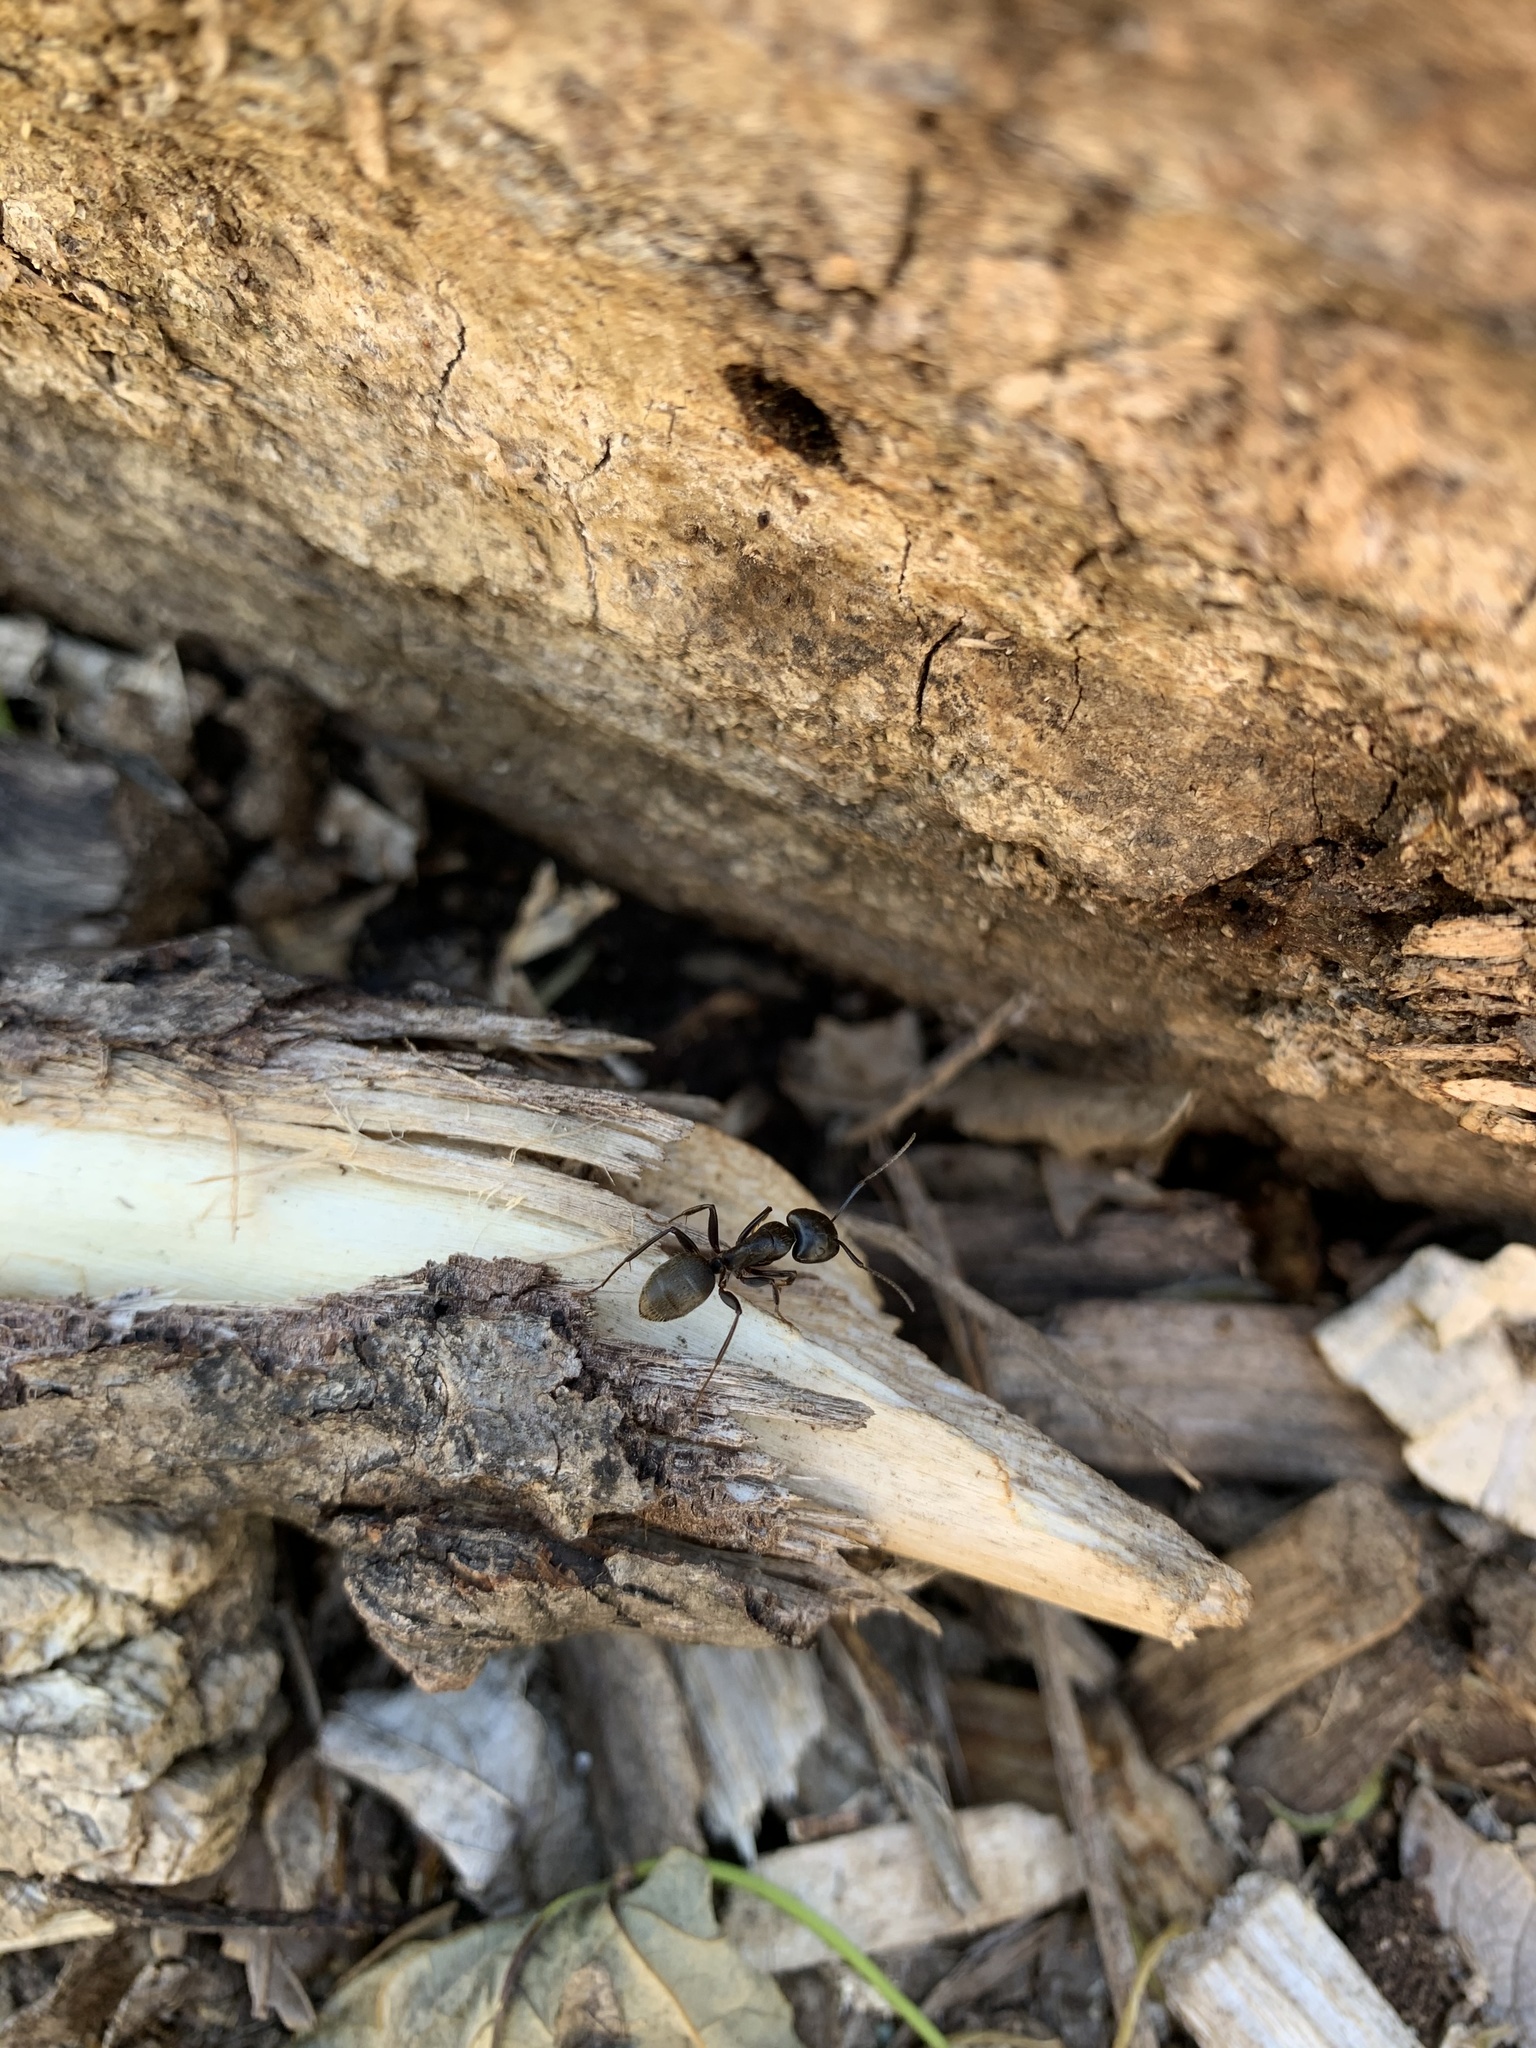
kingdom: Animalia
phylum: Arthropoda
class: Insecta
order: Hymenoptera
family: Formicidae
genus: Camponotus
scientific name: Camponotus pennsylvanicus
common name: Black carpenter ant
